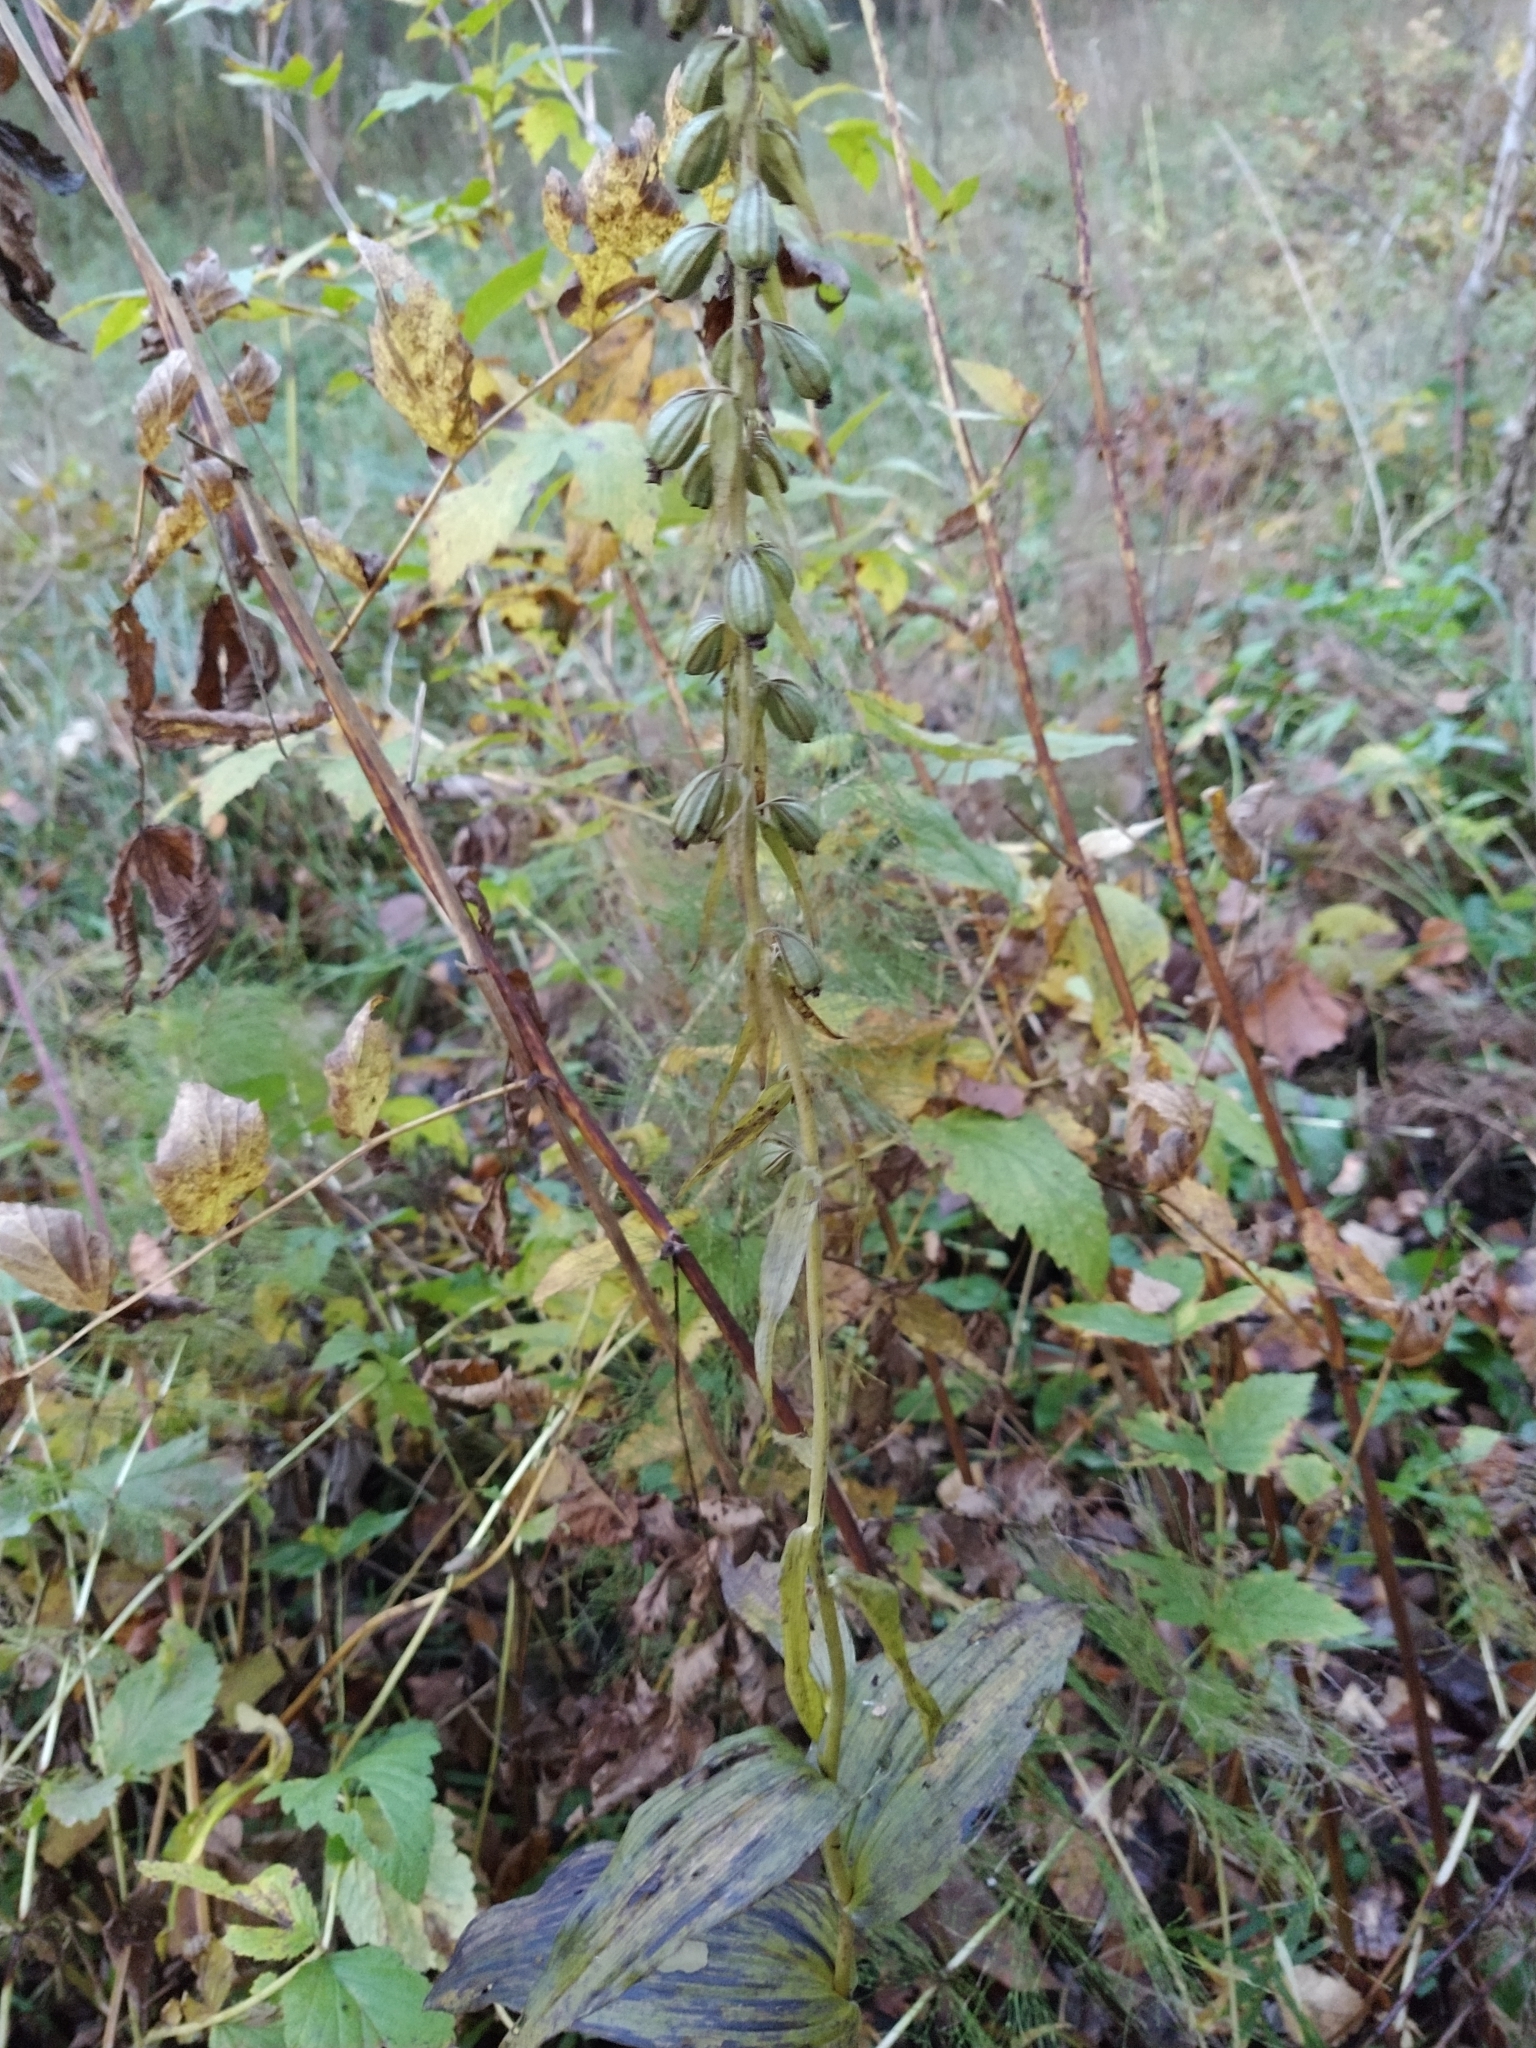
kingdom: Plantae
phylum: Tracheophyta
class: Liliopsida
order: Asparagales
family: Orchidaceae
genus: Epipactis
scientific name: Epipactis helleborine
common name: Broad-leaved helleborine
